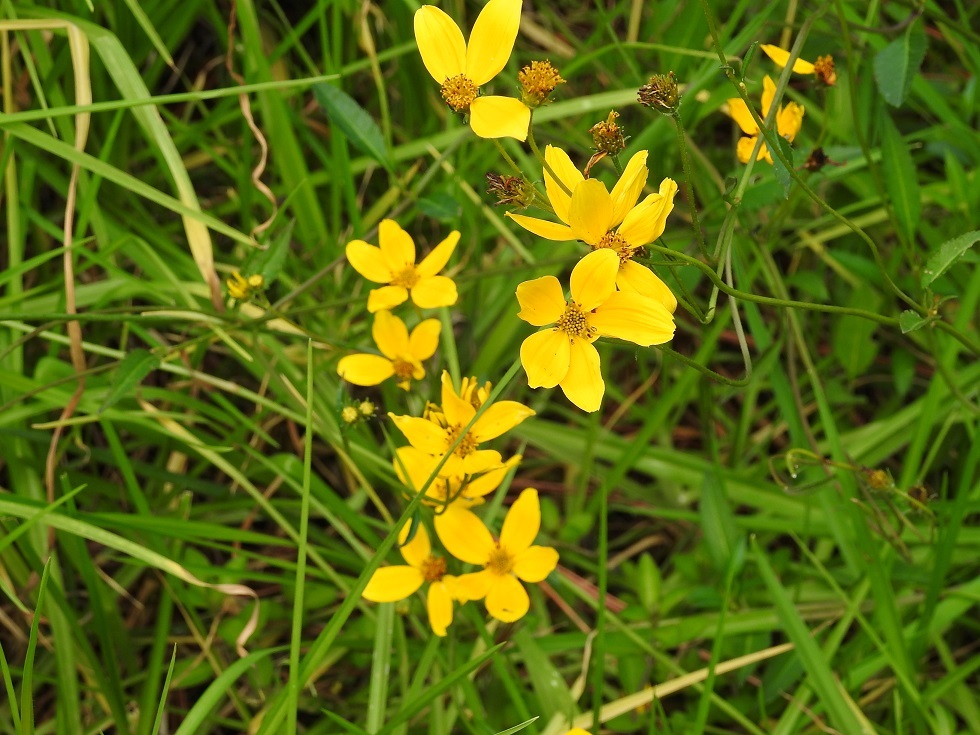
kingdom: Plantae
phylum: Tracheophyta
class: Magnoliopsida
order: Asterales
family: Asteraceae
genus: Bidens
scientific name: Bidens aurea
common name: Arizona beggar-ticks
